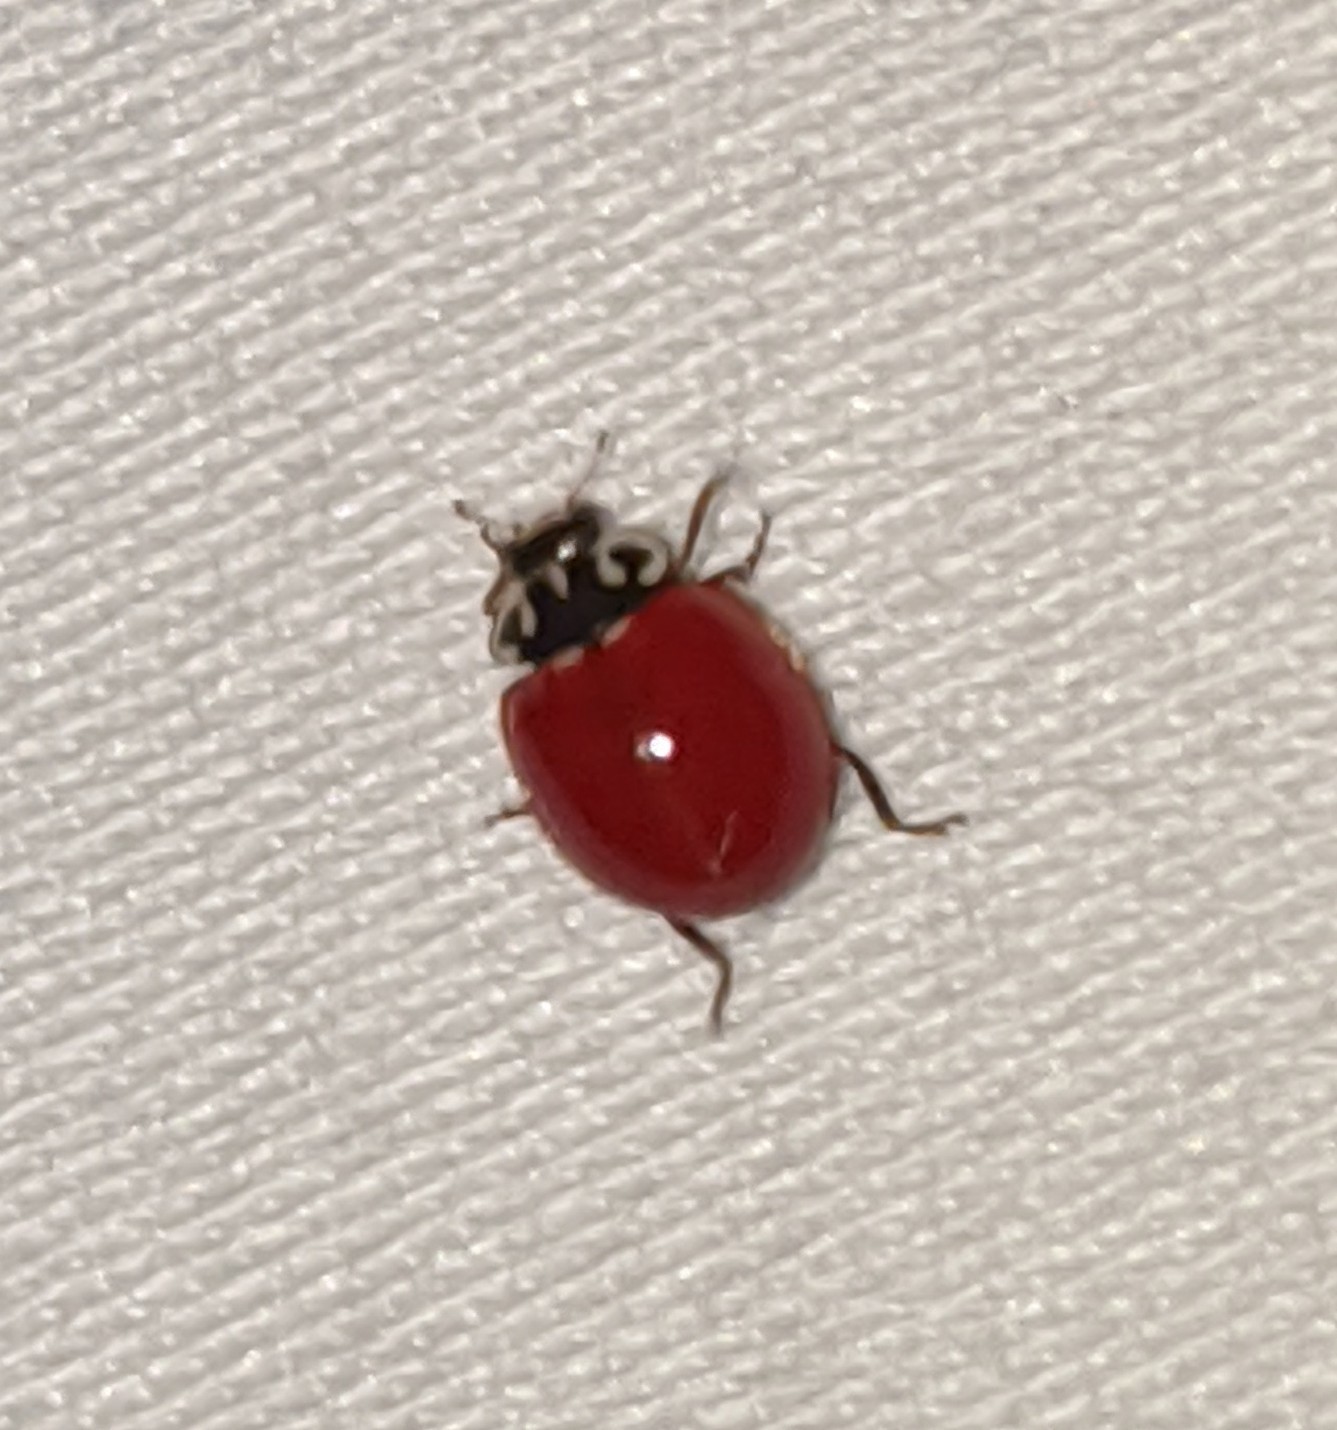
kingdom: Animalia
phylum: Arthropoda
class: Insecta
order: Coleoptera
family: Coccinellidae
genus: Cycloneda
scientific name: Cycloneda polita
